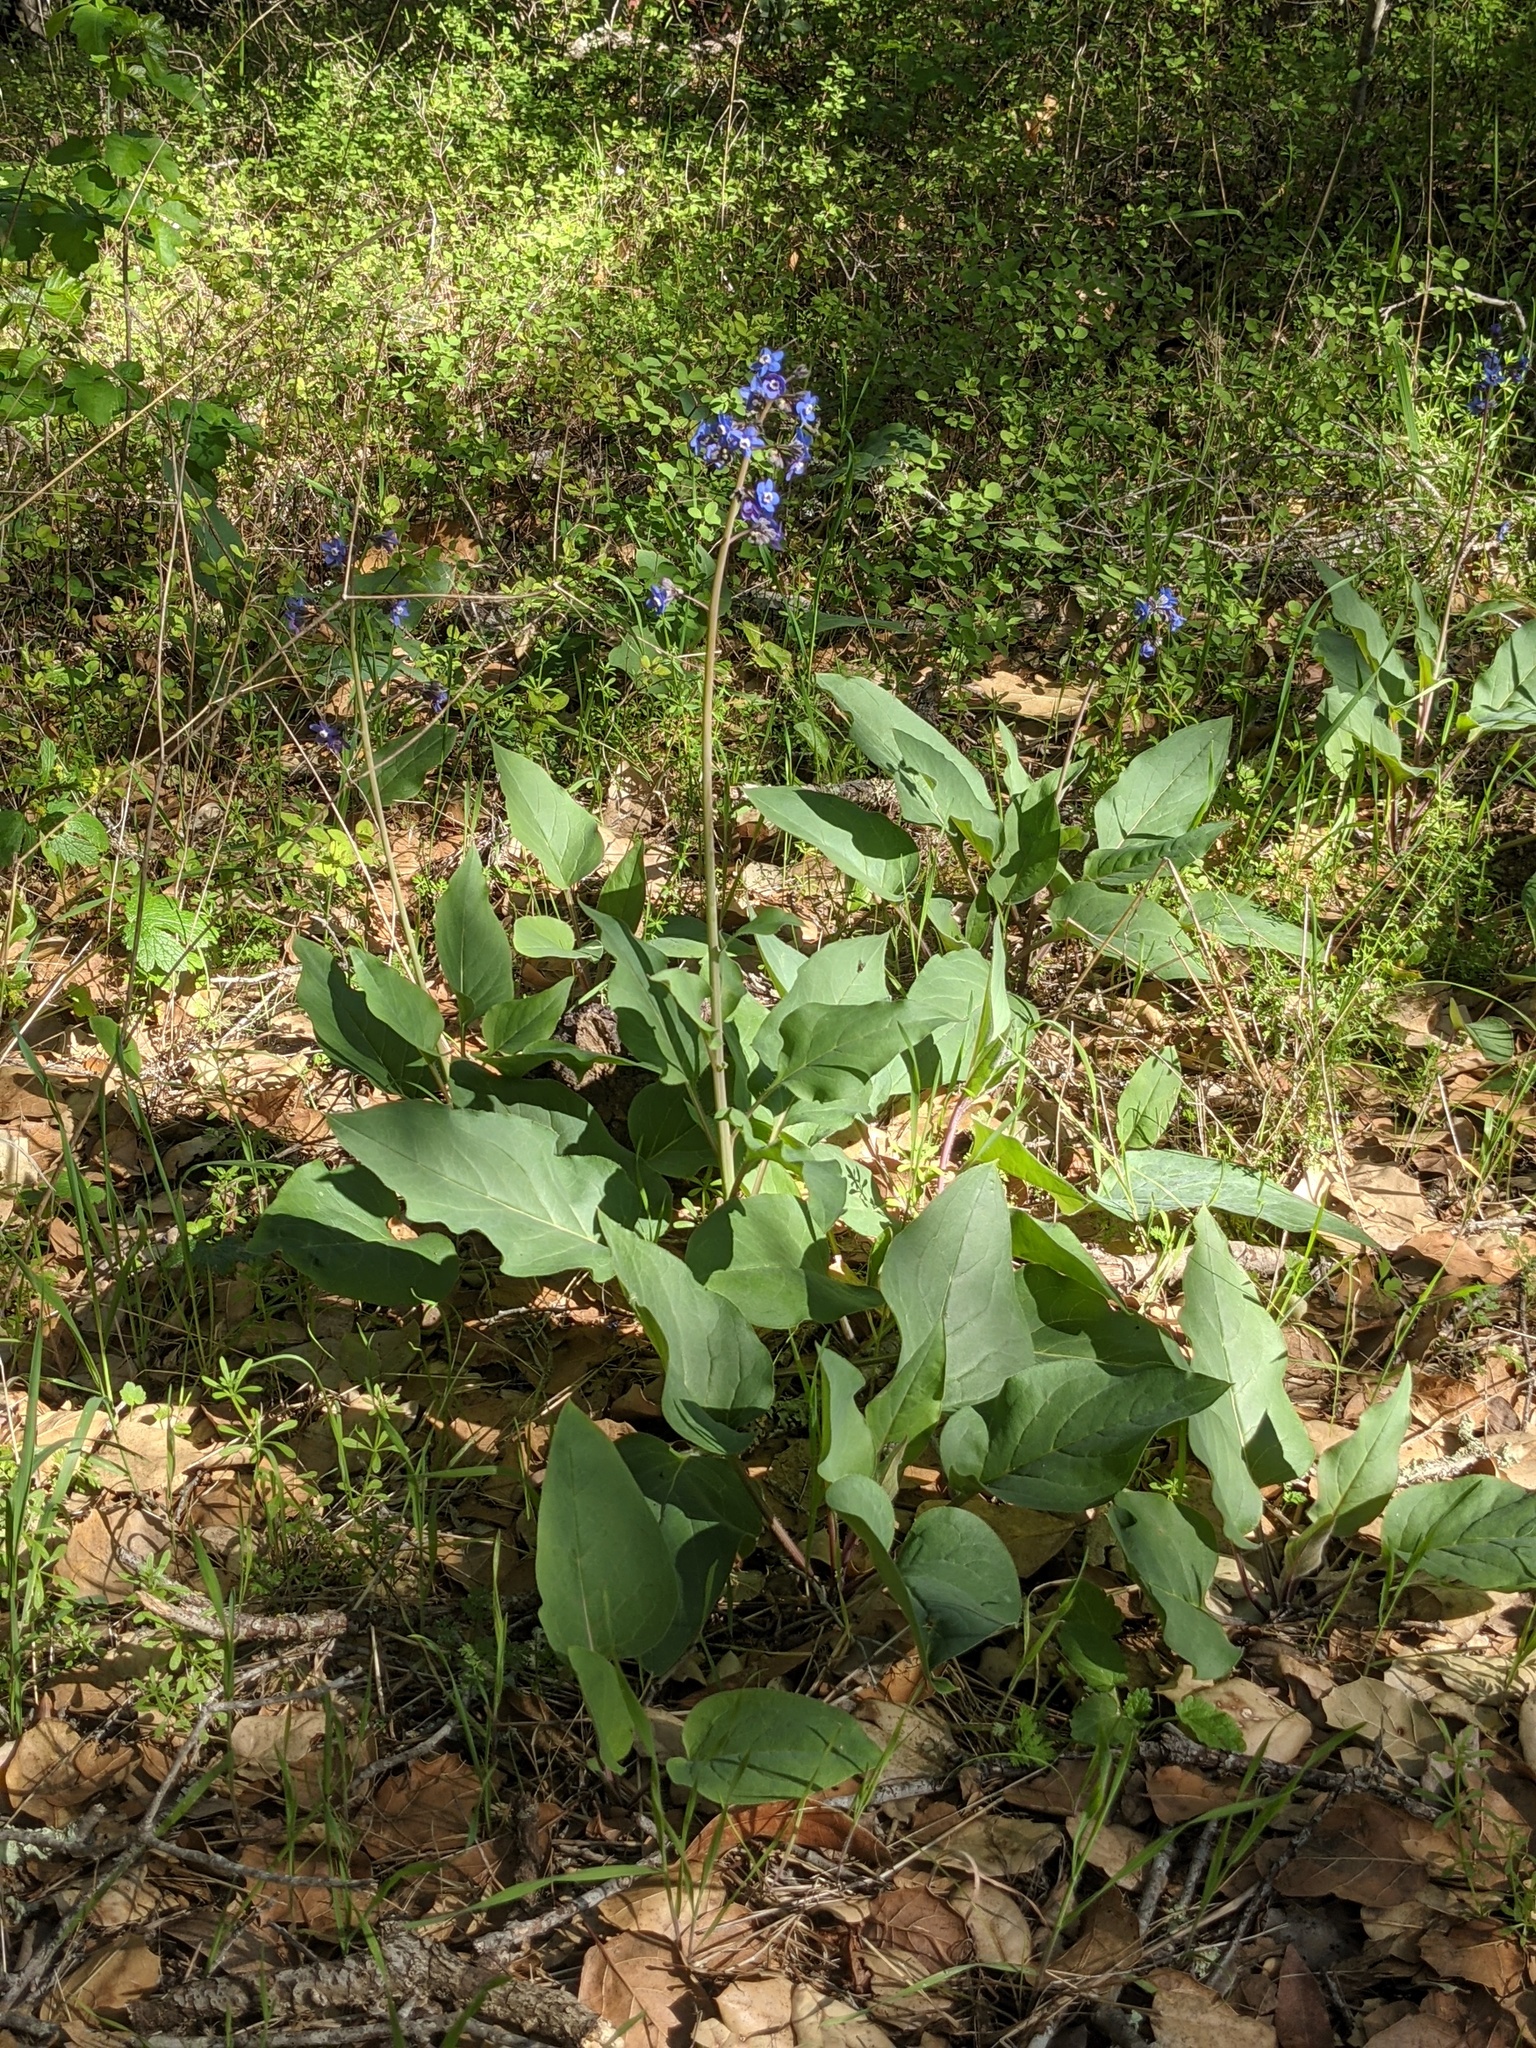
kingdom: Plantae
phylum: Tracheophyta
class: Magnoliopsida
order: Boraginales
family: Boraginaceae
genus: Adelinia
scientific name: Adelinia grande
